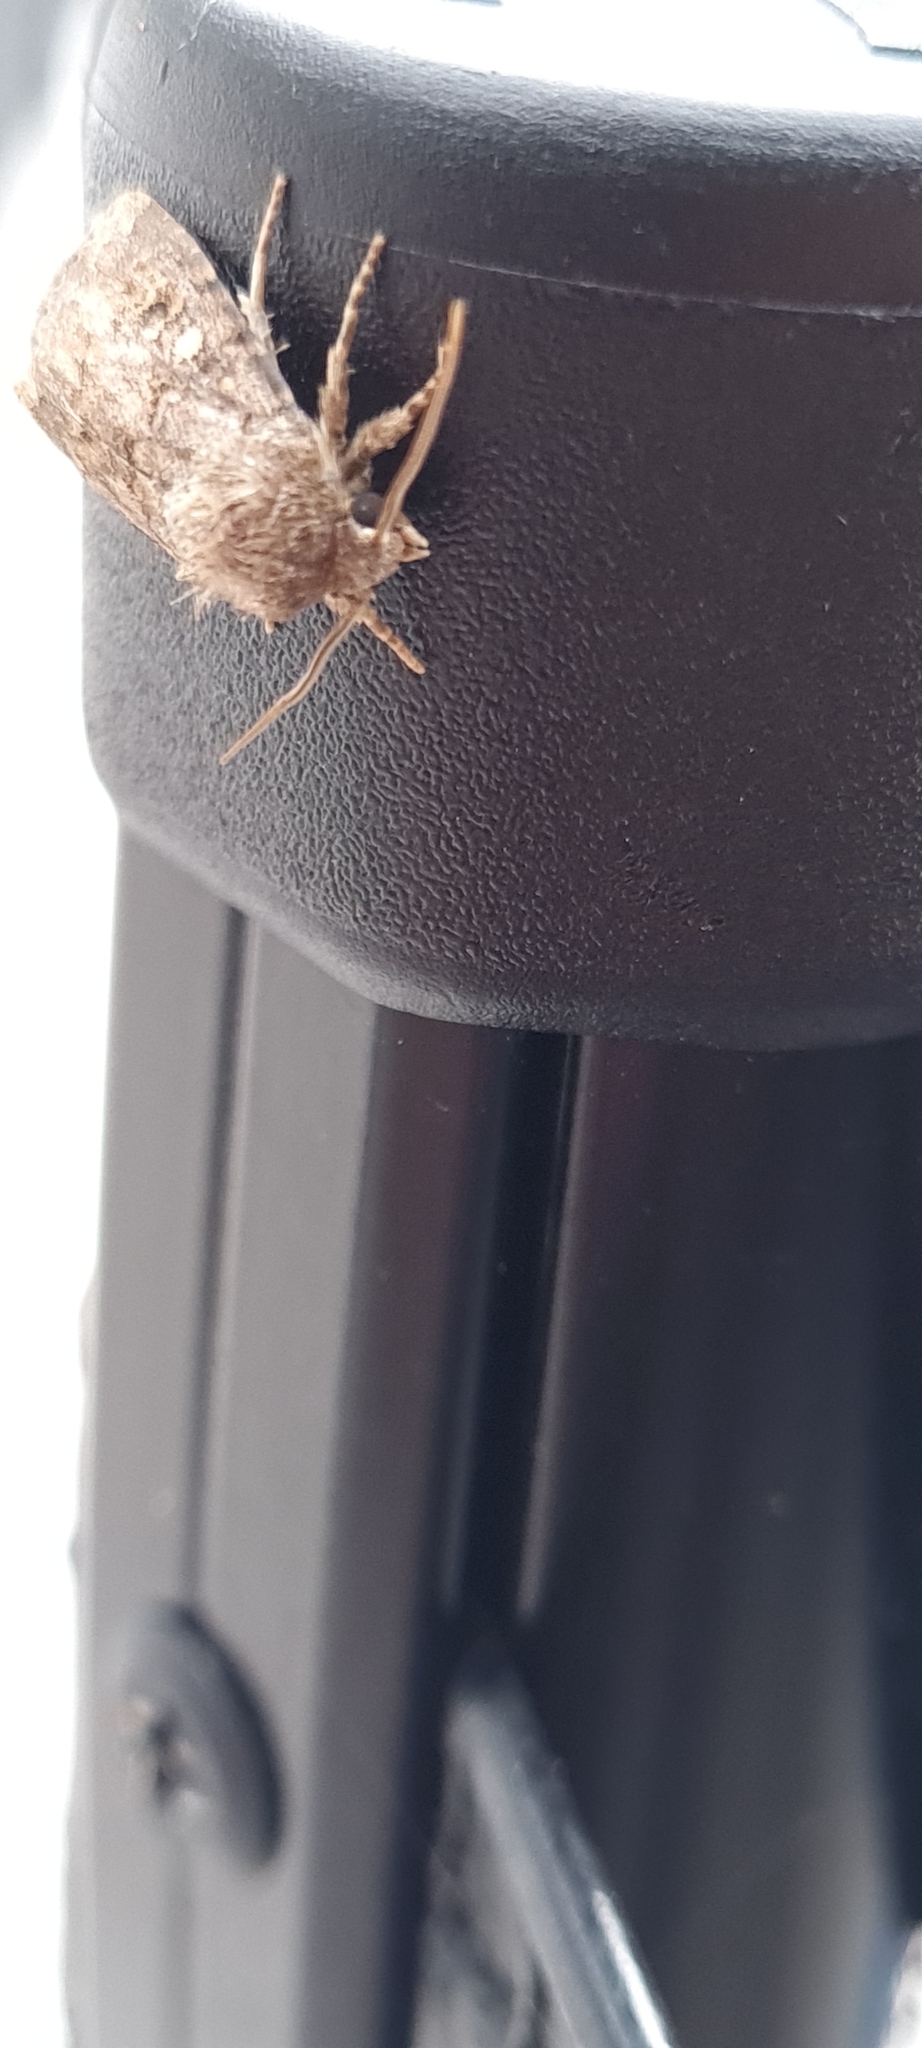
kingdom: Animalia
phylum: Arthropoda
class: Insecta
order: Lepidoptera
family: Noctuidae
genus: Spodoptera
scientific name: Spodoptera cilium
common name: Dark mottled willow
